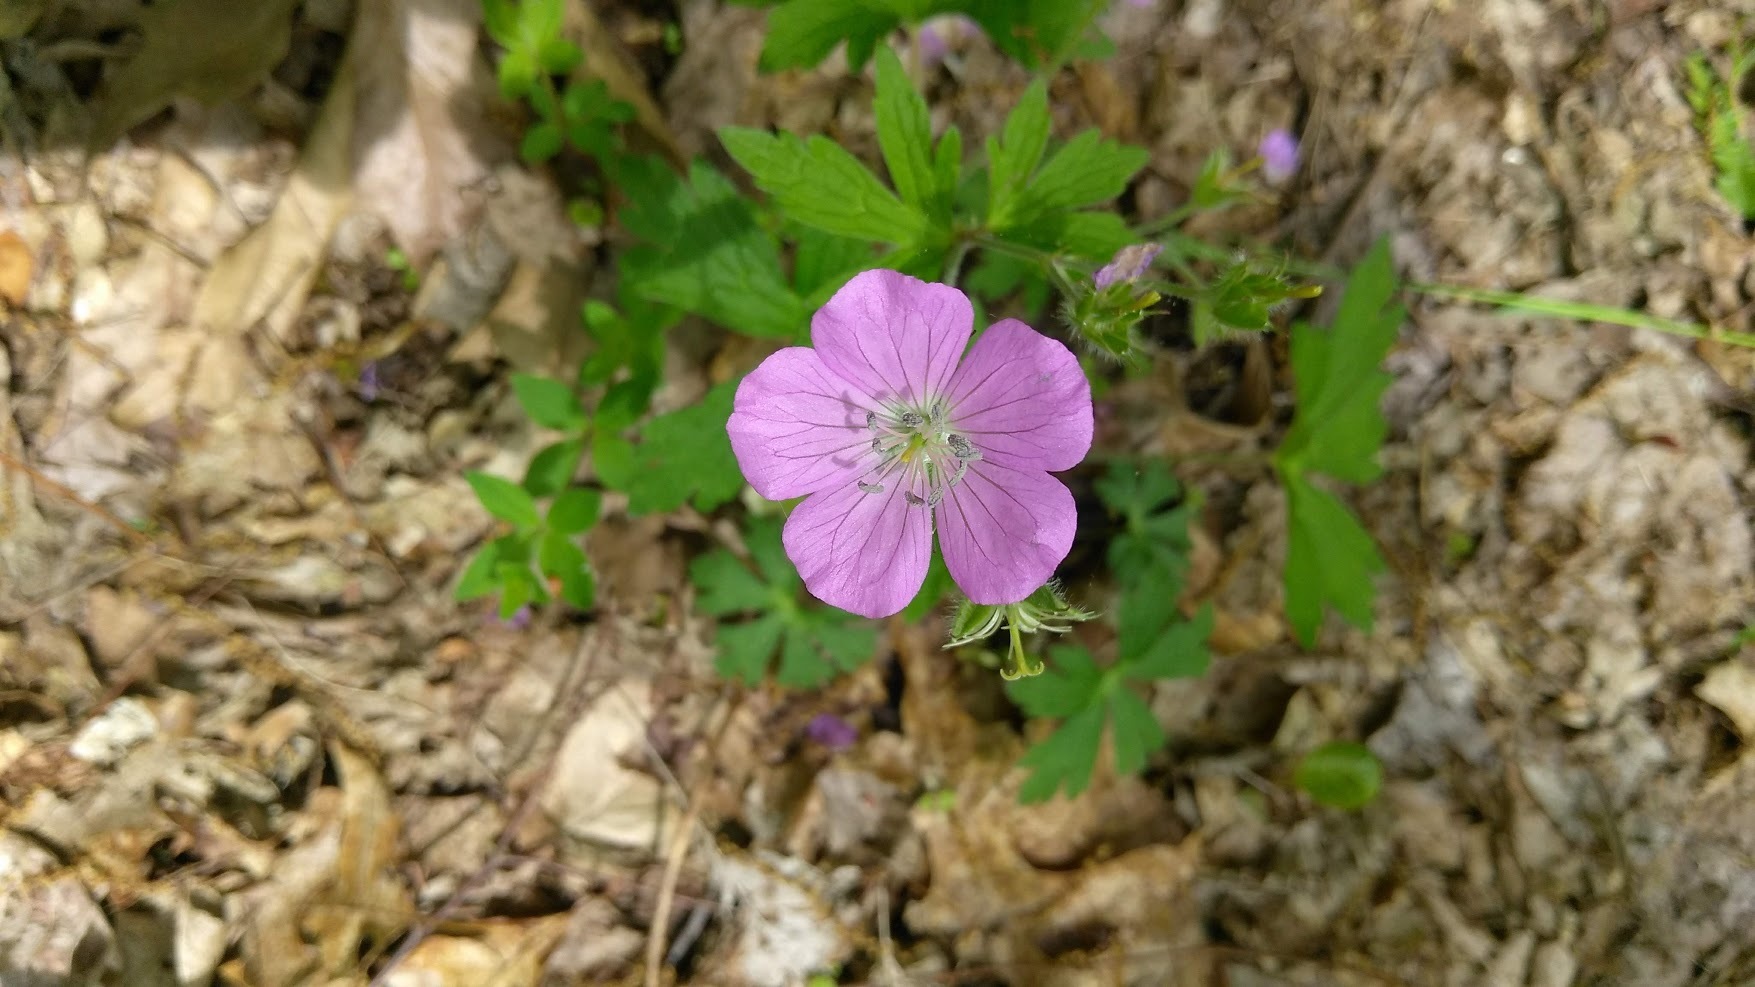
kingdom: Plantae
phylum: Tracheophyta
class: Magnoliopsida
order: Geraniales
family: Geraniaceae
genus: Geranium
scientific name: Geranium maculatum
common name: Spotted geranium
